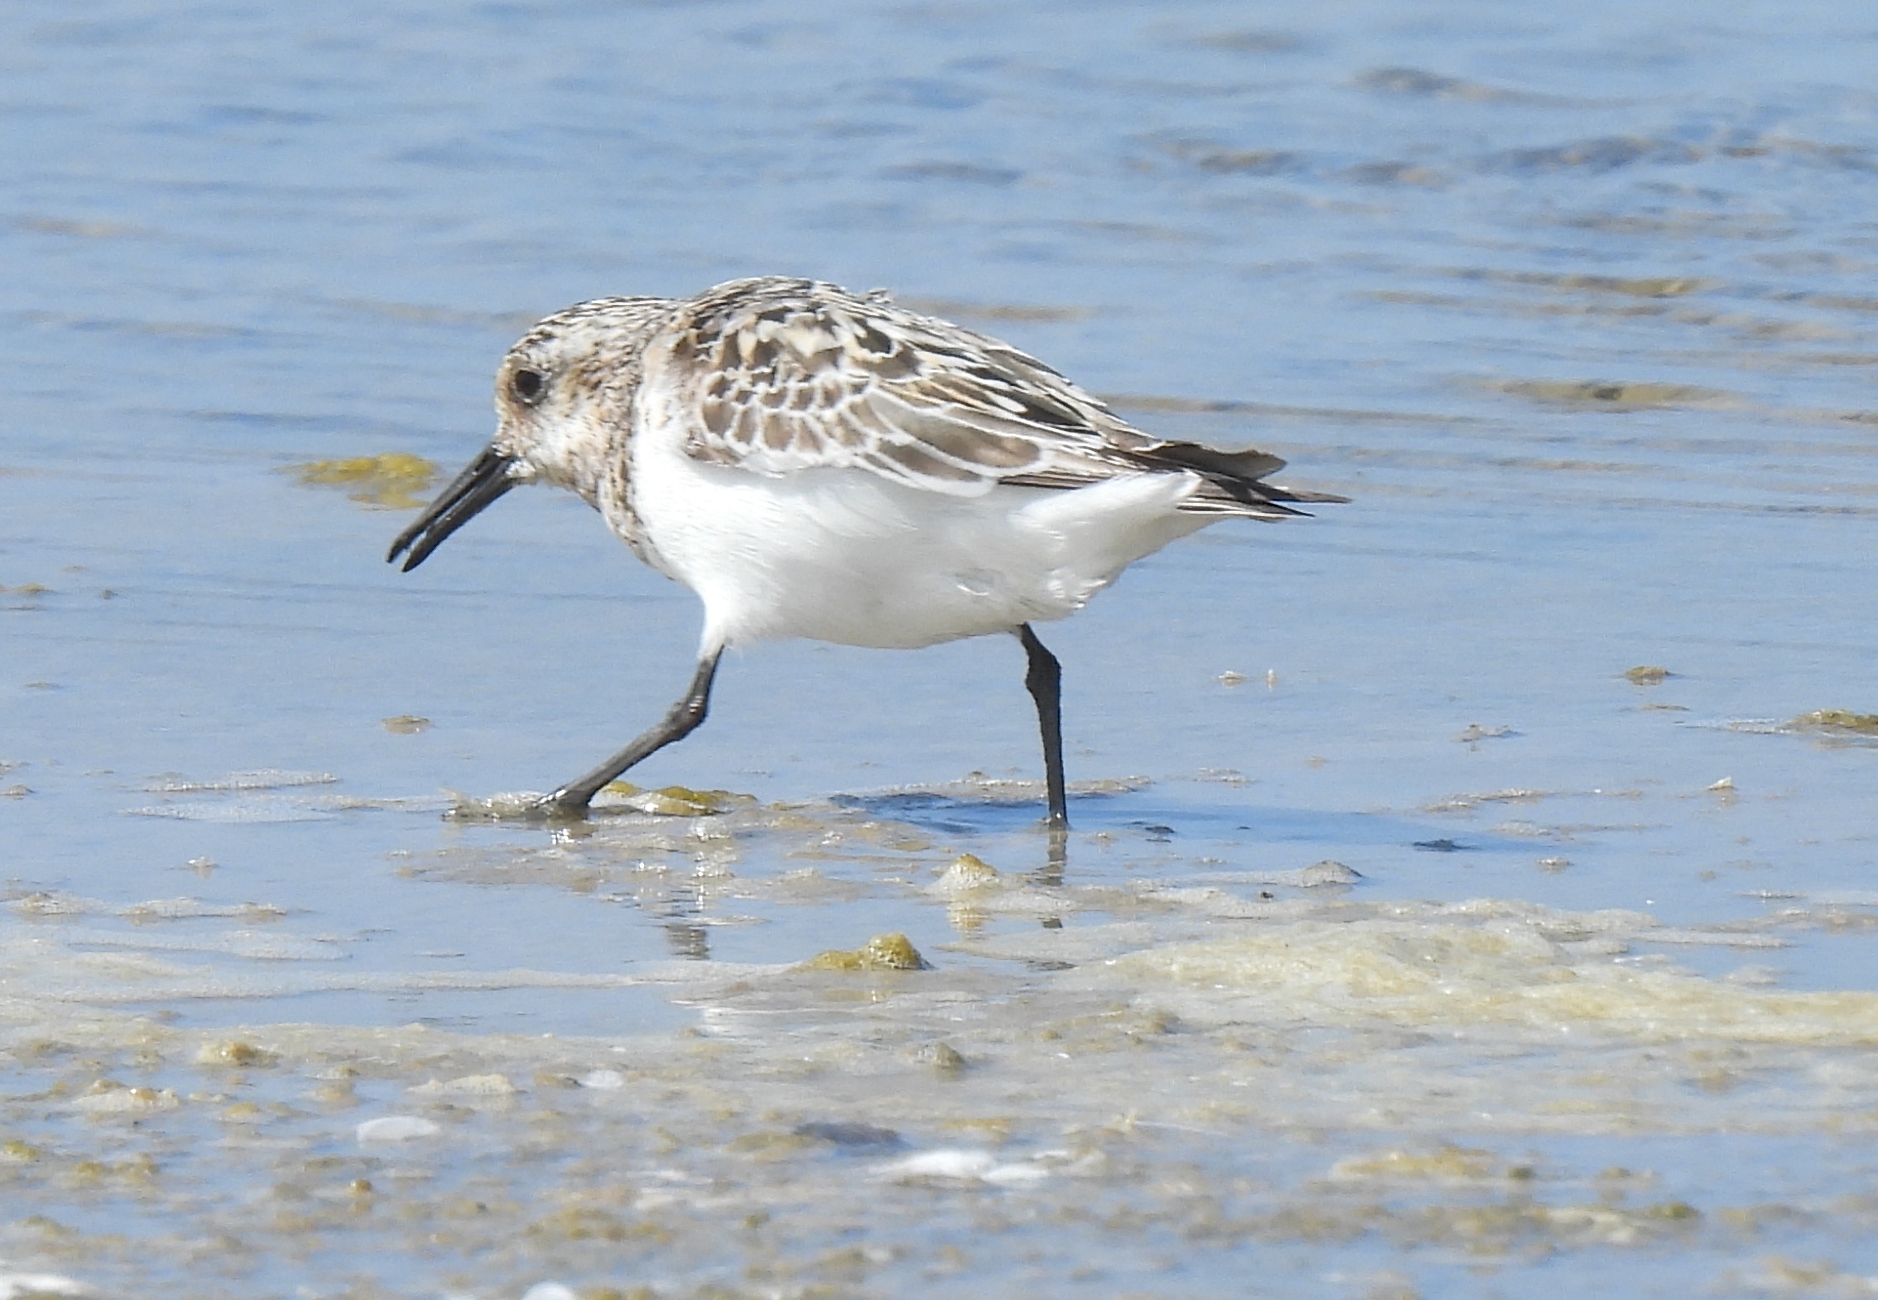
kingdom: Animalia
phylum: Chordata
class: Aves
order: Charadriiformes
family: Scolopacidae
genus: Calidris
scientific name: Calidris alba
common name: Sanderling
